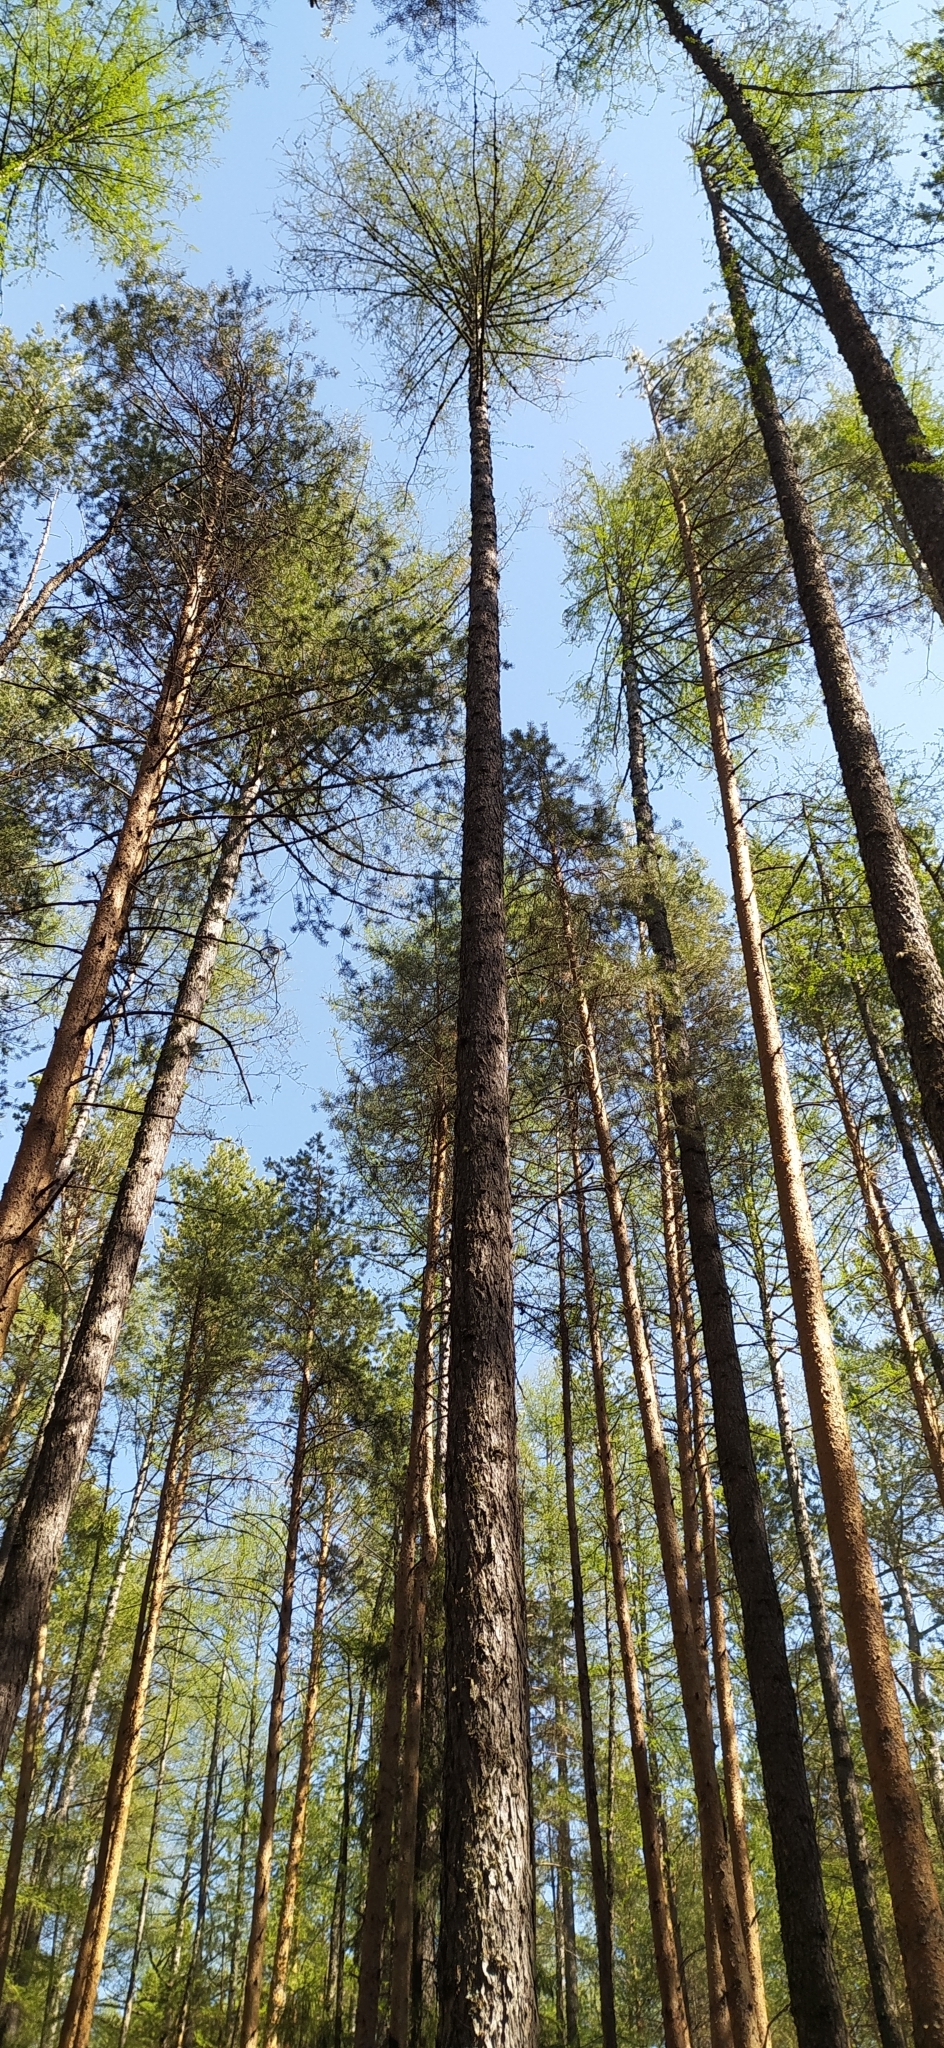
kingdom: Plantae
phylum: Tracheophyta
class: Pinopsida
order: Pinales
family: Pinaceae
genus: Larix
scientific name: Larix sibirica
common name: Siberian larch
